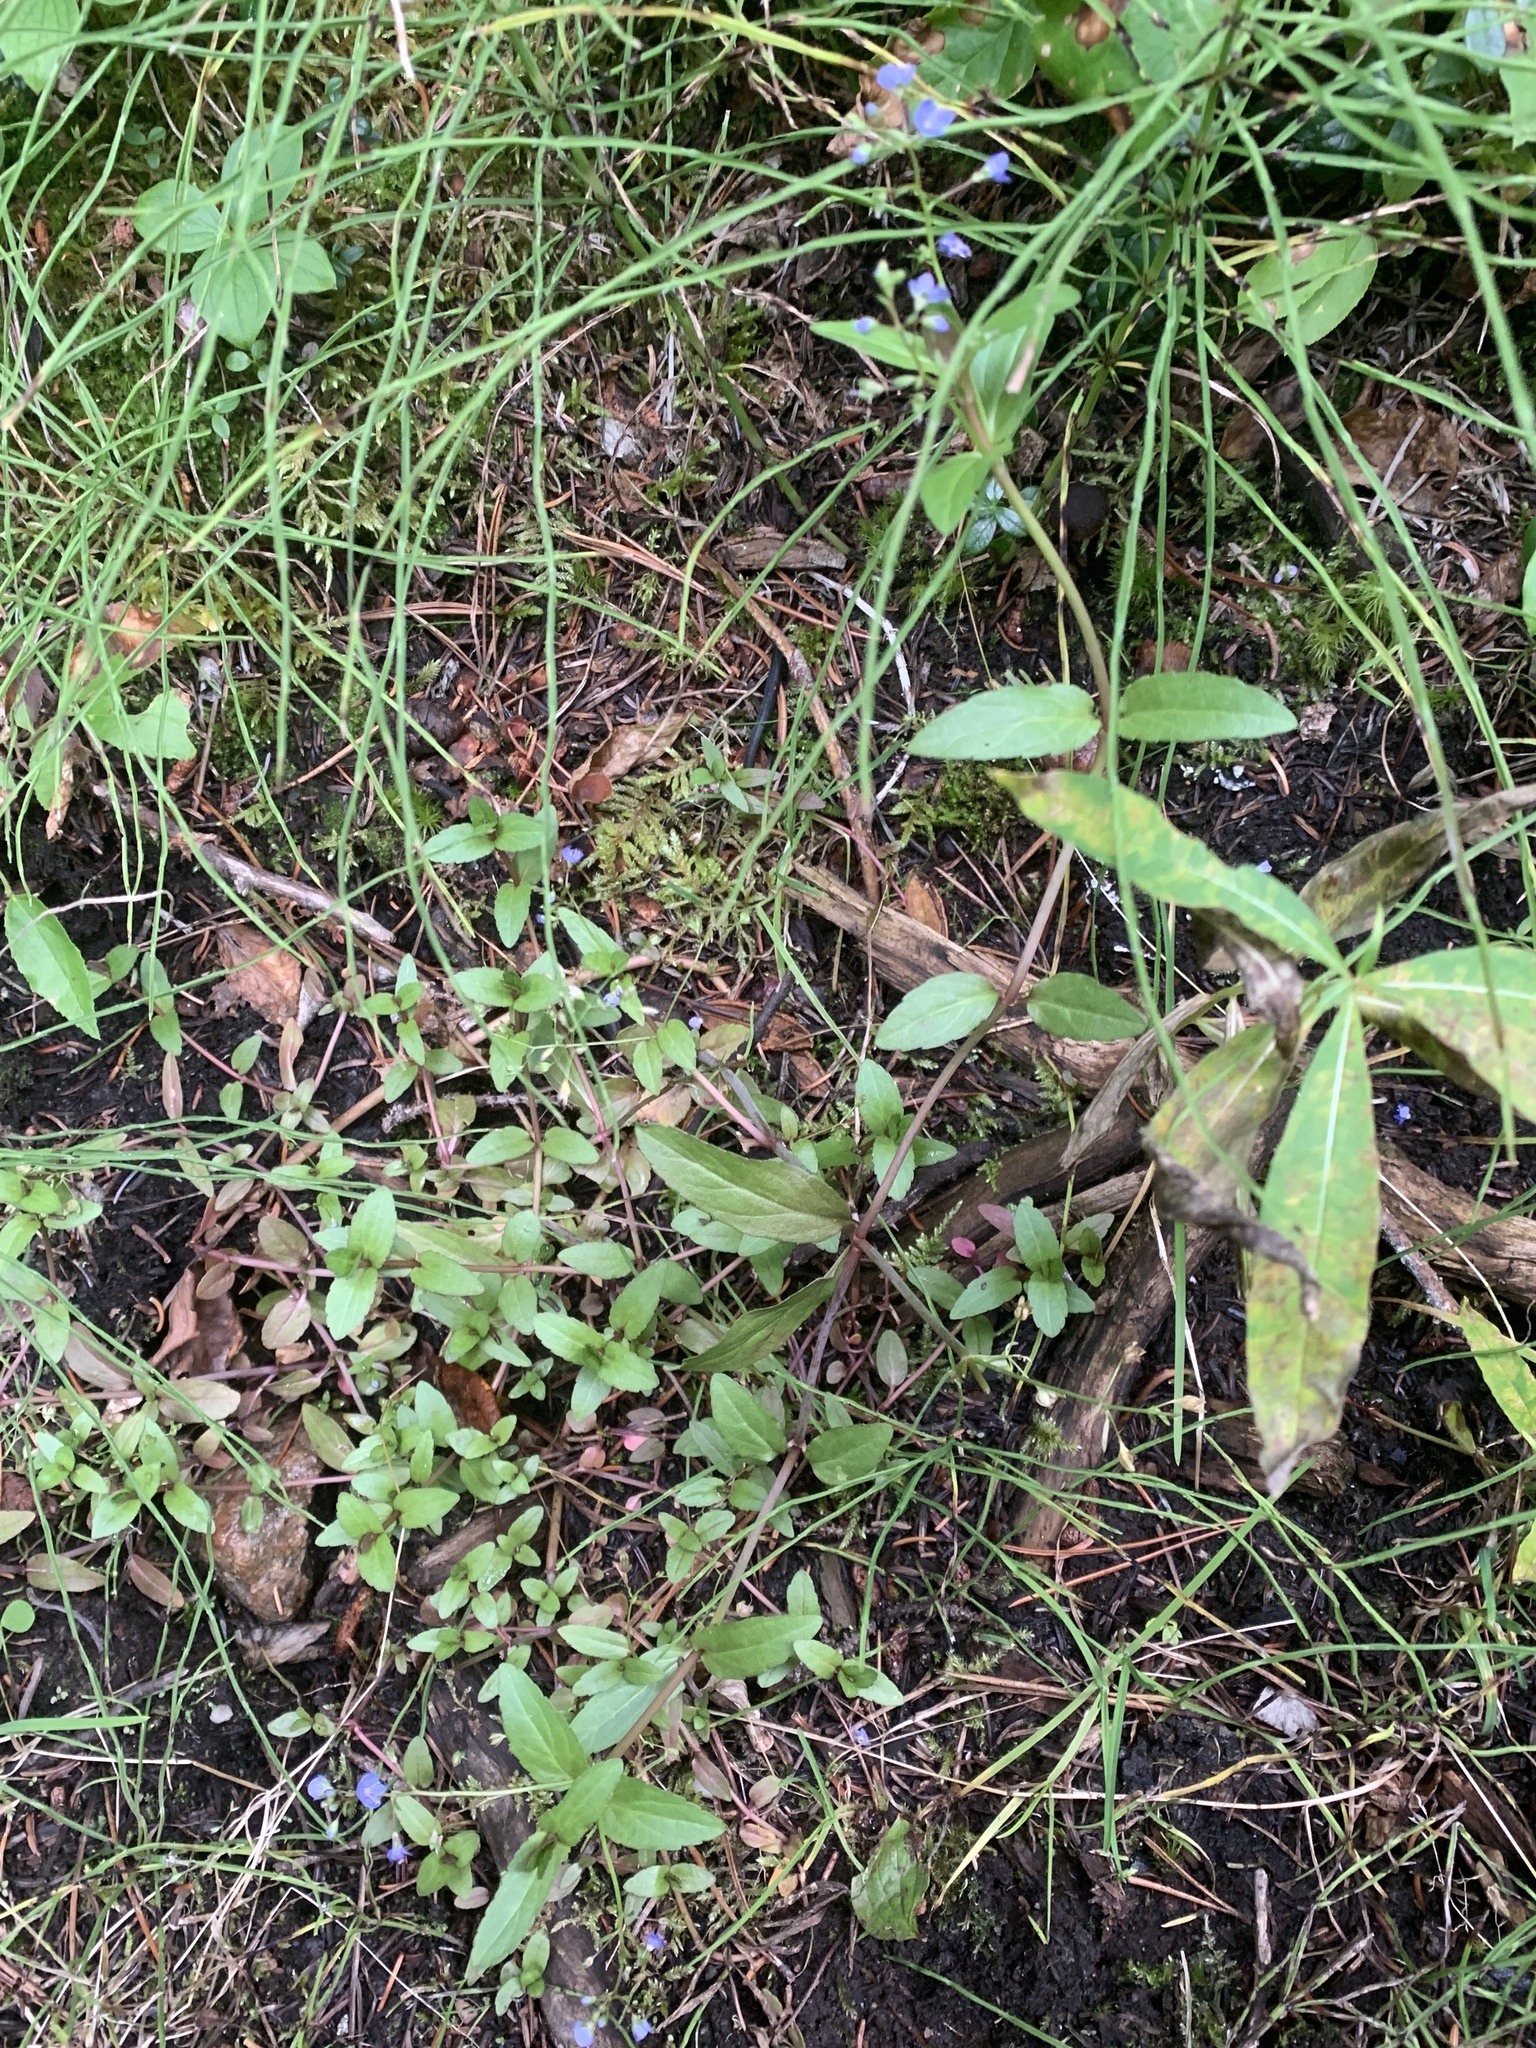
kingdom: Plantae
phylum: Tracheophyta
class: Magnoliopsida
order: Lamiales
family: Plantaginaceae
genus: Veronica
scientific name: Veronica americana
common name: American brooklime
